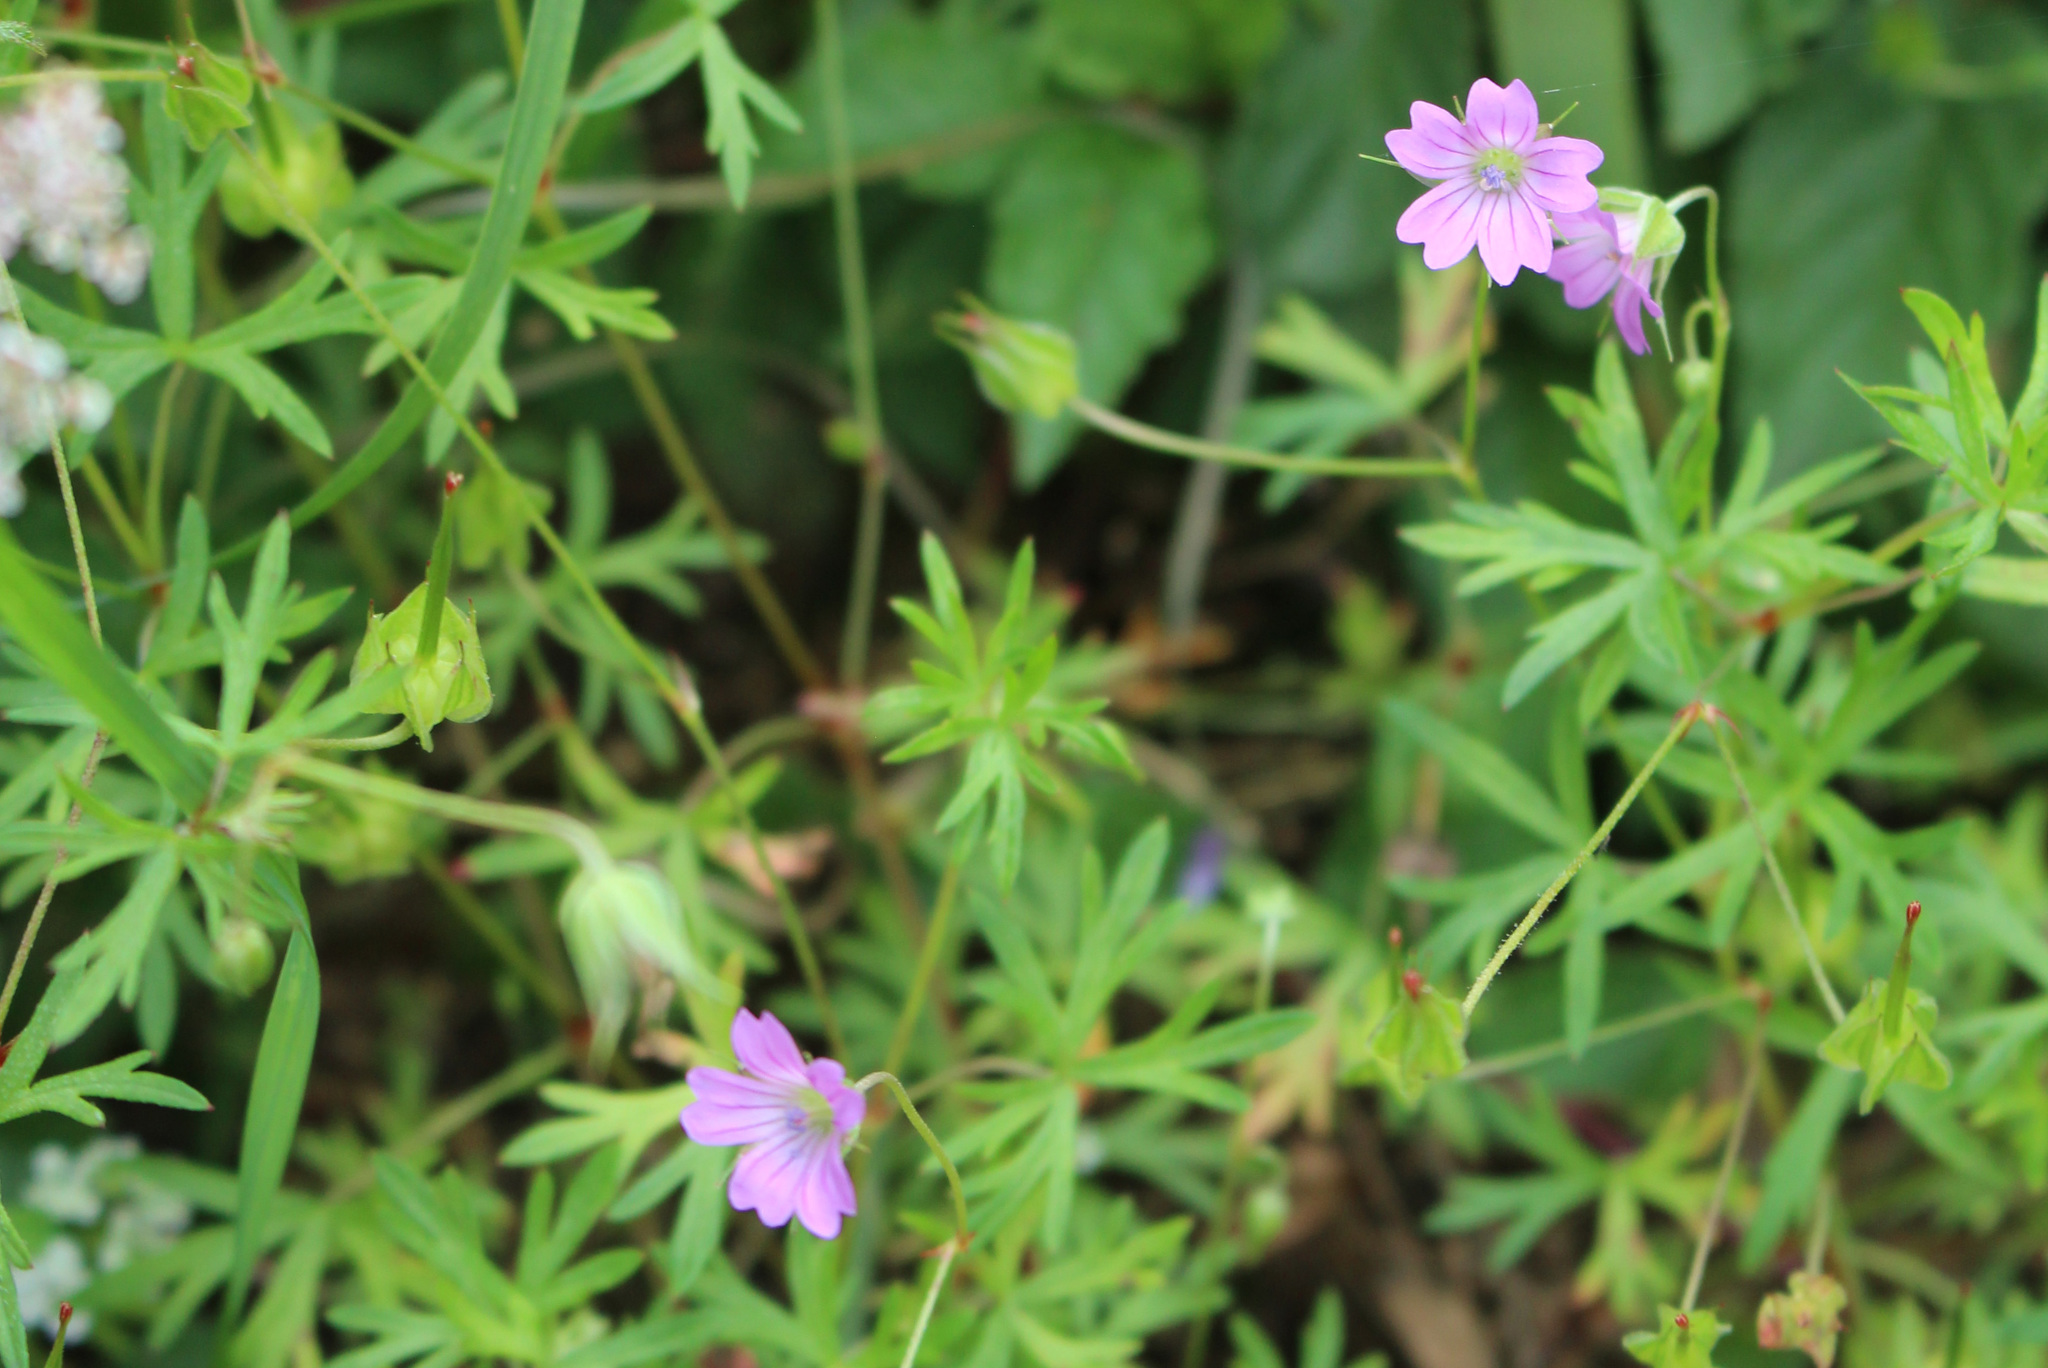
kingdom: Plantae
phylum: Tracheophyta
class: Magnoliopsida
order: Geraniales
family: Geraniaceae
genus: Geranium
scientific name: Geranium columbinum
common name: Long-stalked crane's-bill
